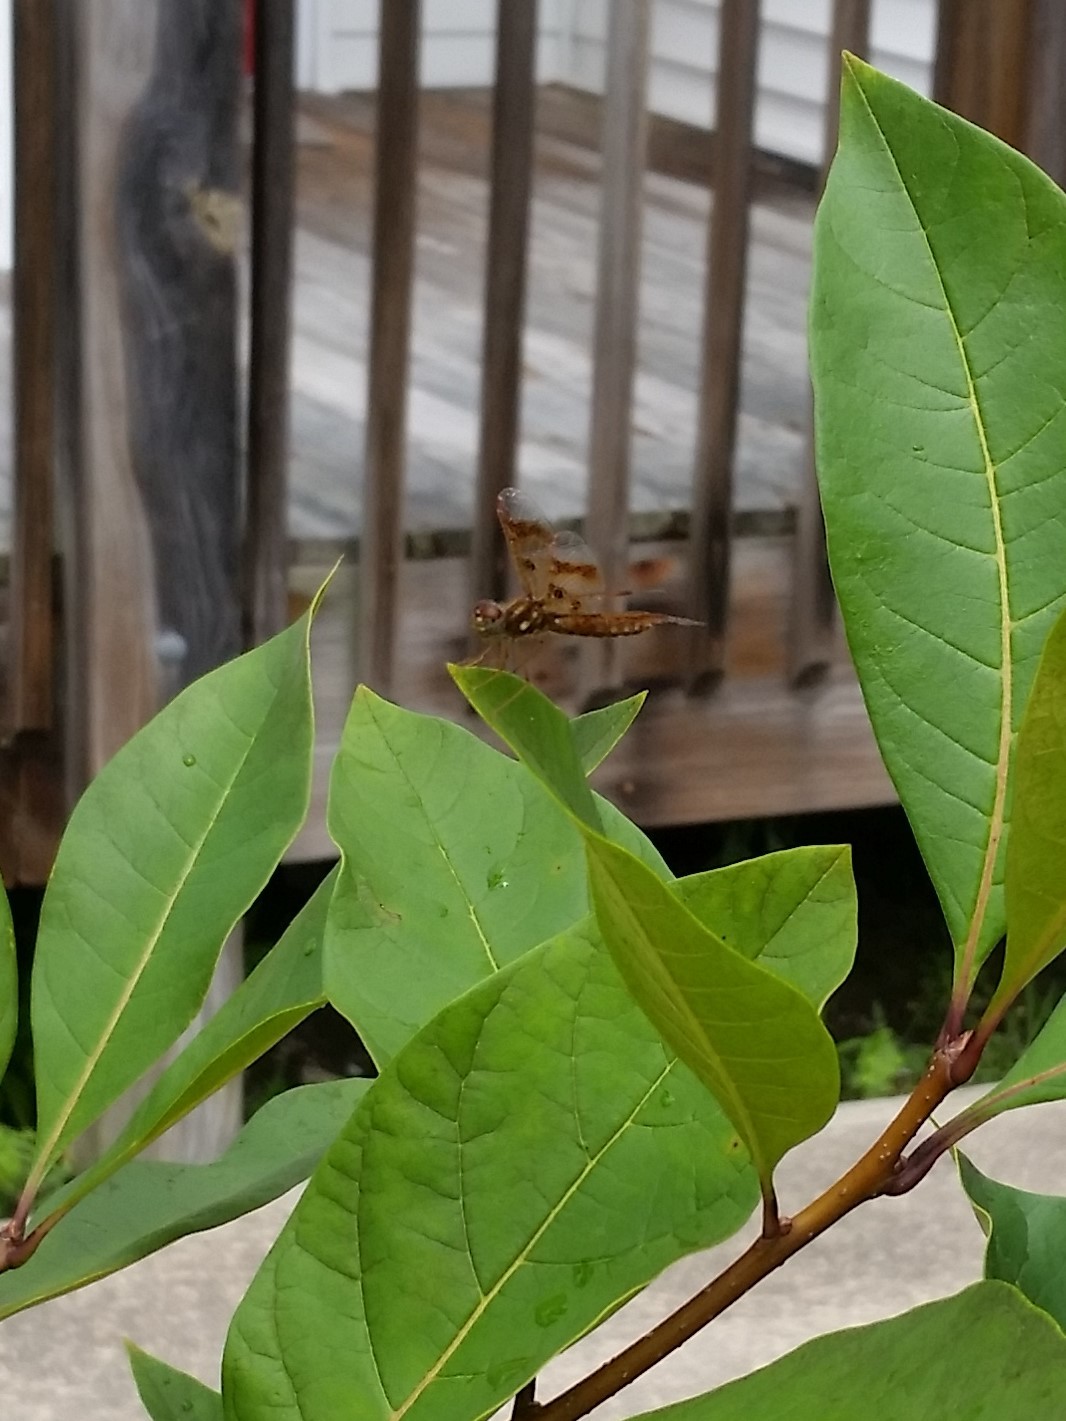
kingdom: Animalia
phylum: Arthropoda
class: Insecta
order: Odonata
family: Libellulidae
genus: Perithemis
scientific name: Perithemis tenera
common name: Eastern amberwing
